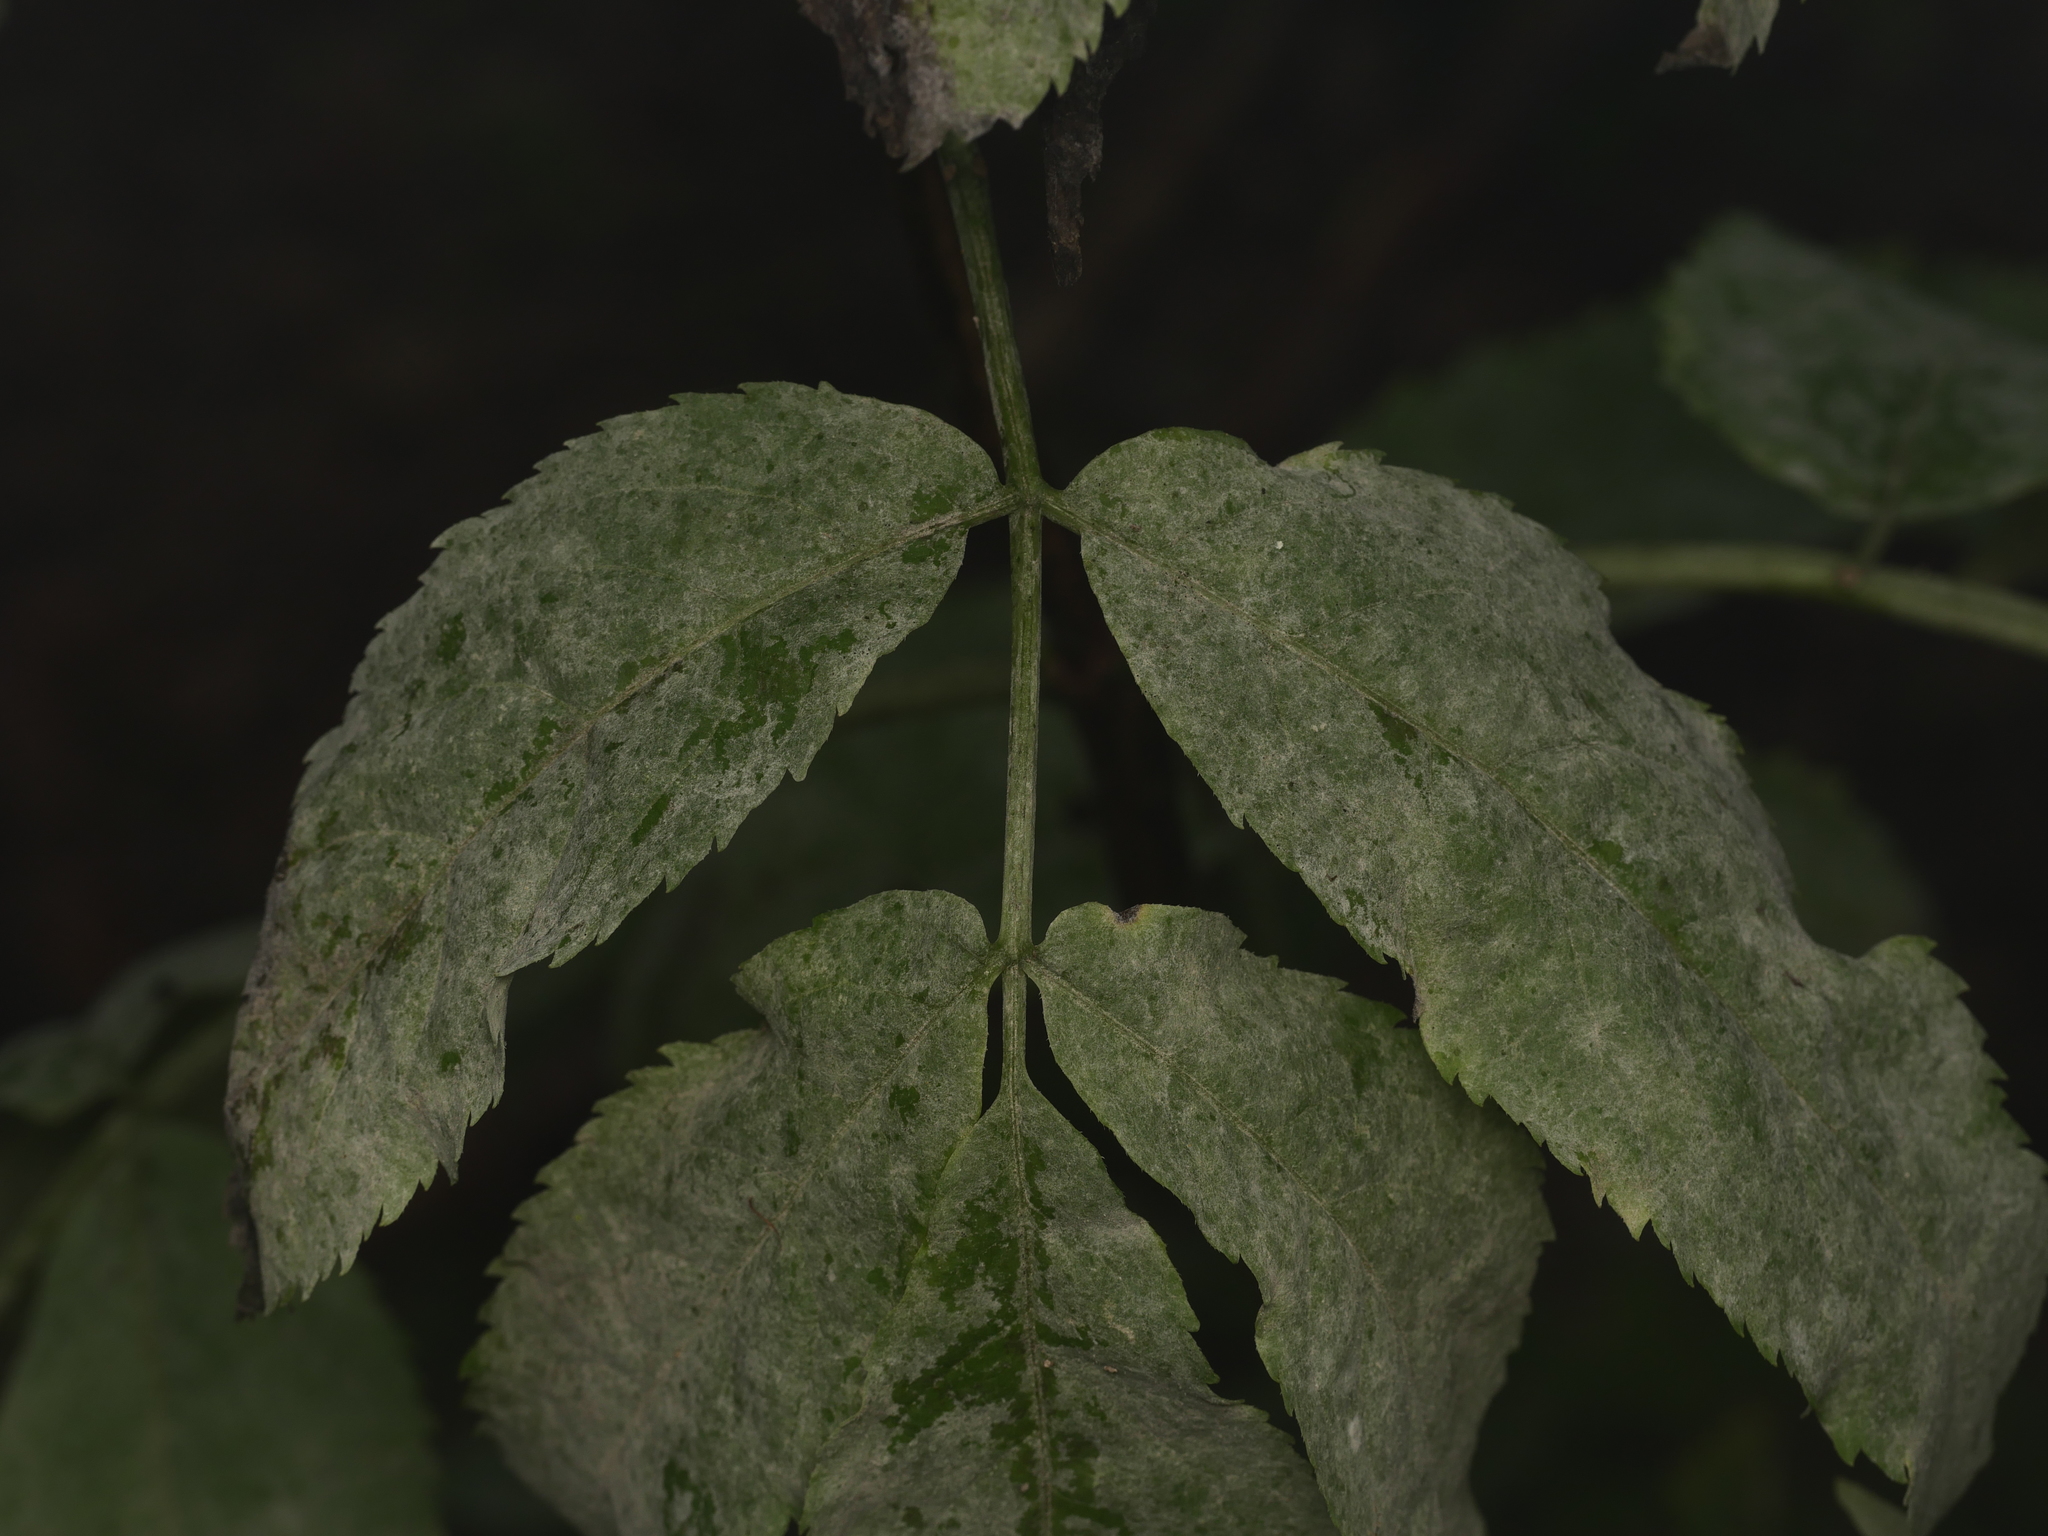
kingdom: Fungi
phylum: Ascomycota
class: Leotiomycetes
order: Helotiales
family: Erysiphaceae
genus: Erysiphe
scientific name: Erysiphe sambuci
